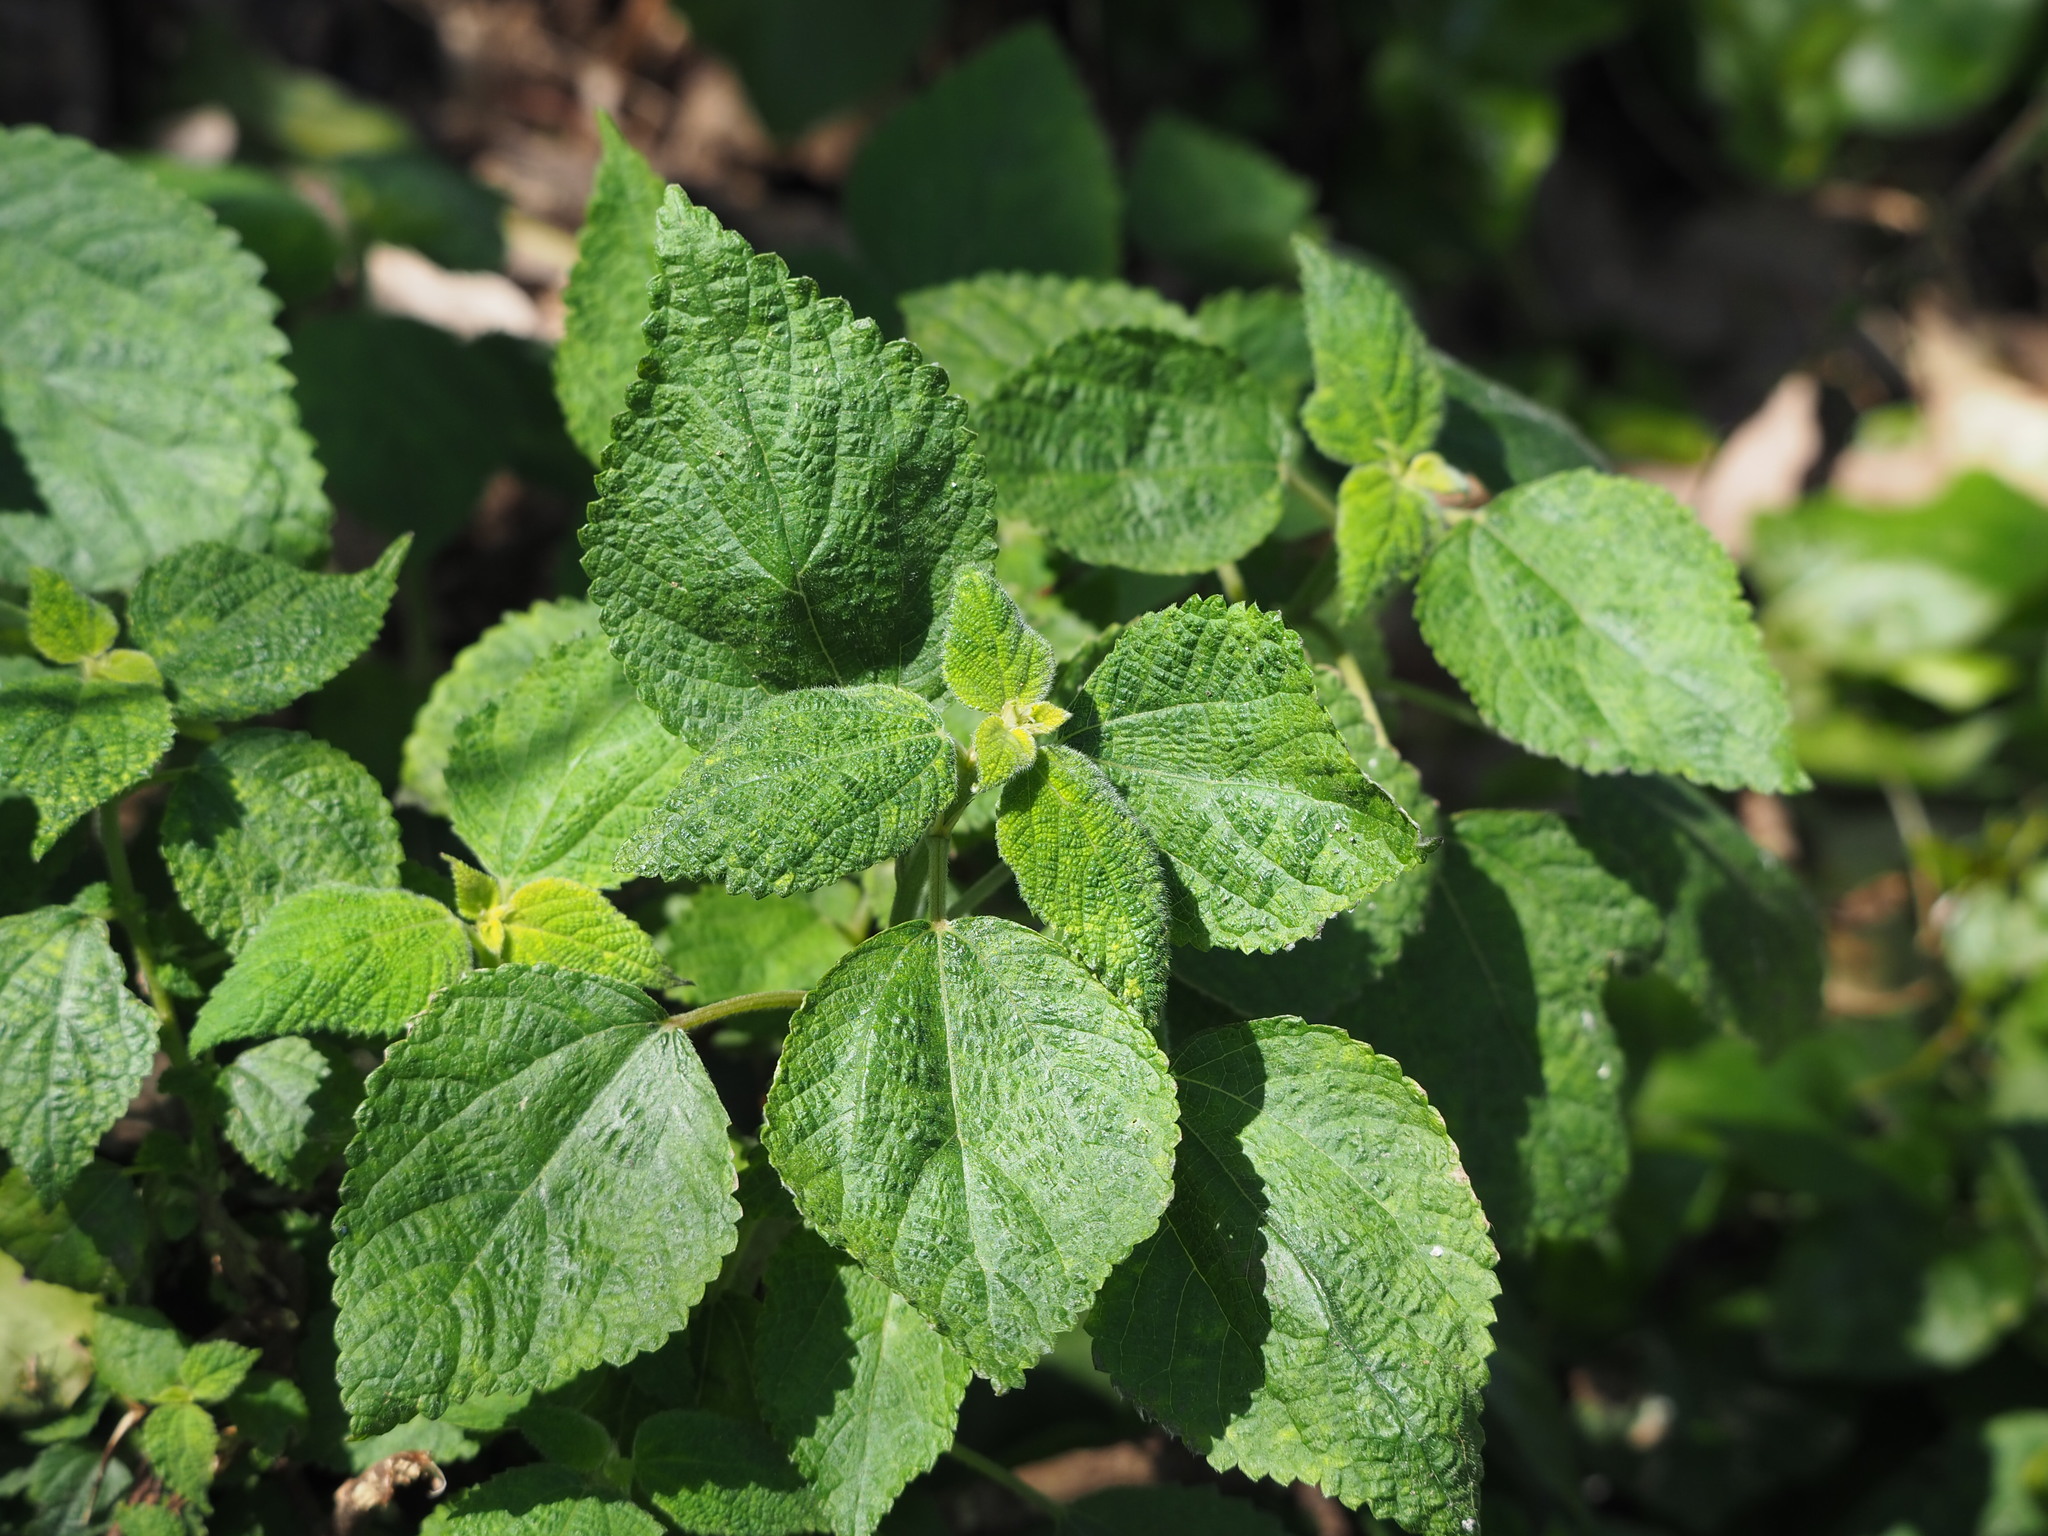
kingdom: Plantae
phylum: Tracheophyta
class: Magnoliopsida
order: Rosales
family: Urticaceae
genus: Boehmeria
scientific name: Boehmeria nivea
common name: Ramie chinese grass
